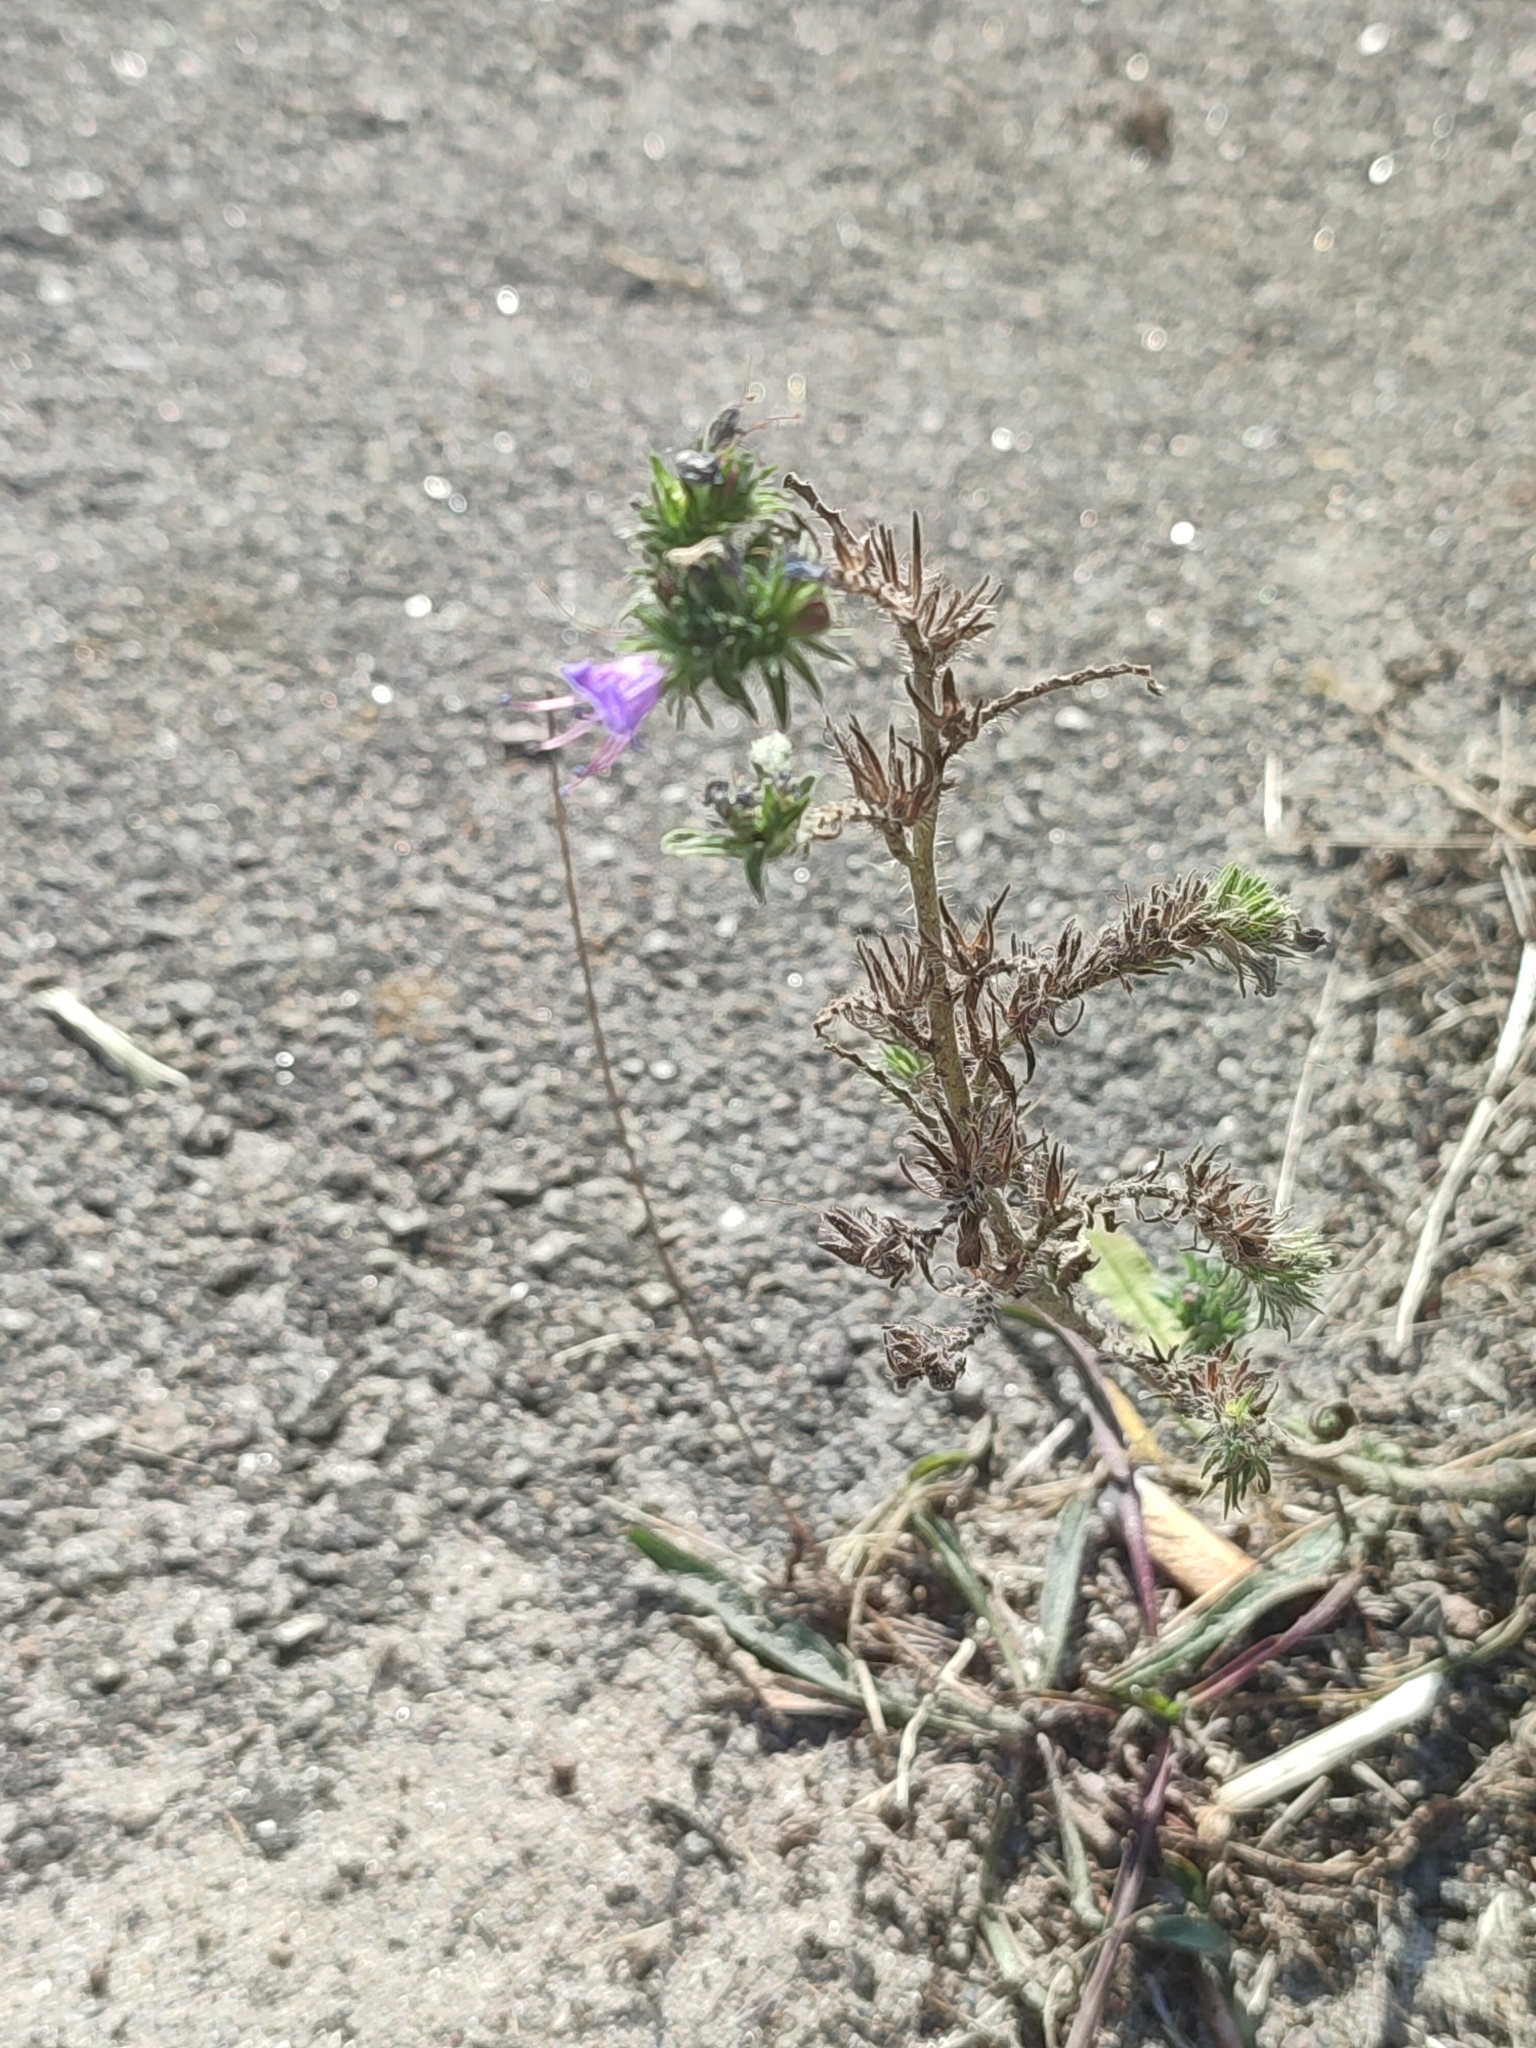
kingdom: Plantae
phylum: Tracheophyta
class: Magnoliopsida
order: Boraginales
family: Boraginaceae
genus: Echium
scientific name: Echium vulgare
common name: Common viper's bugloss
